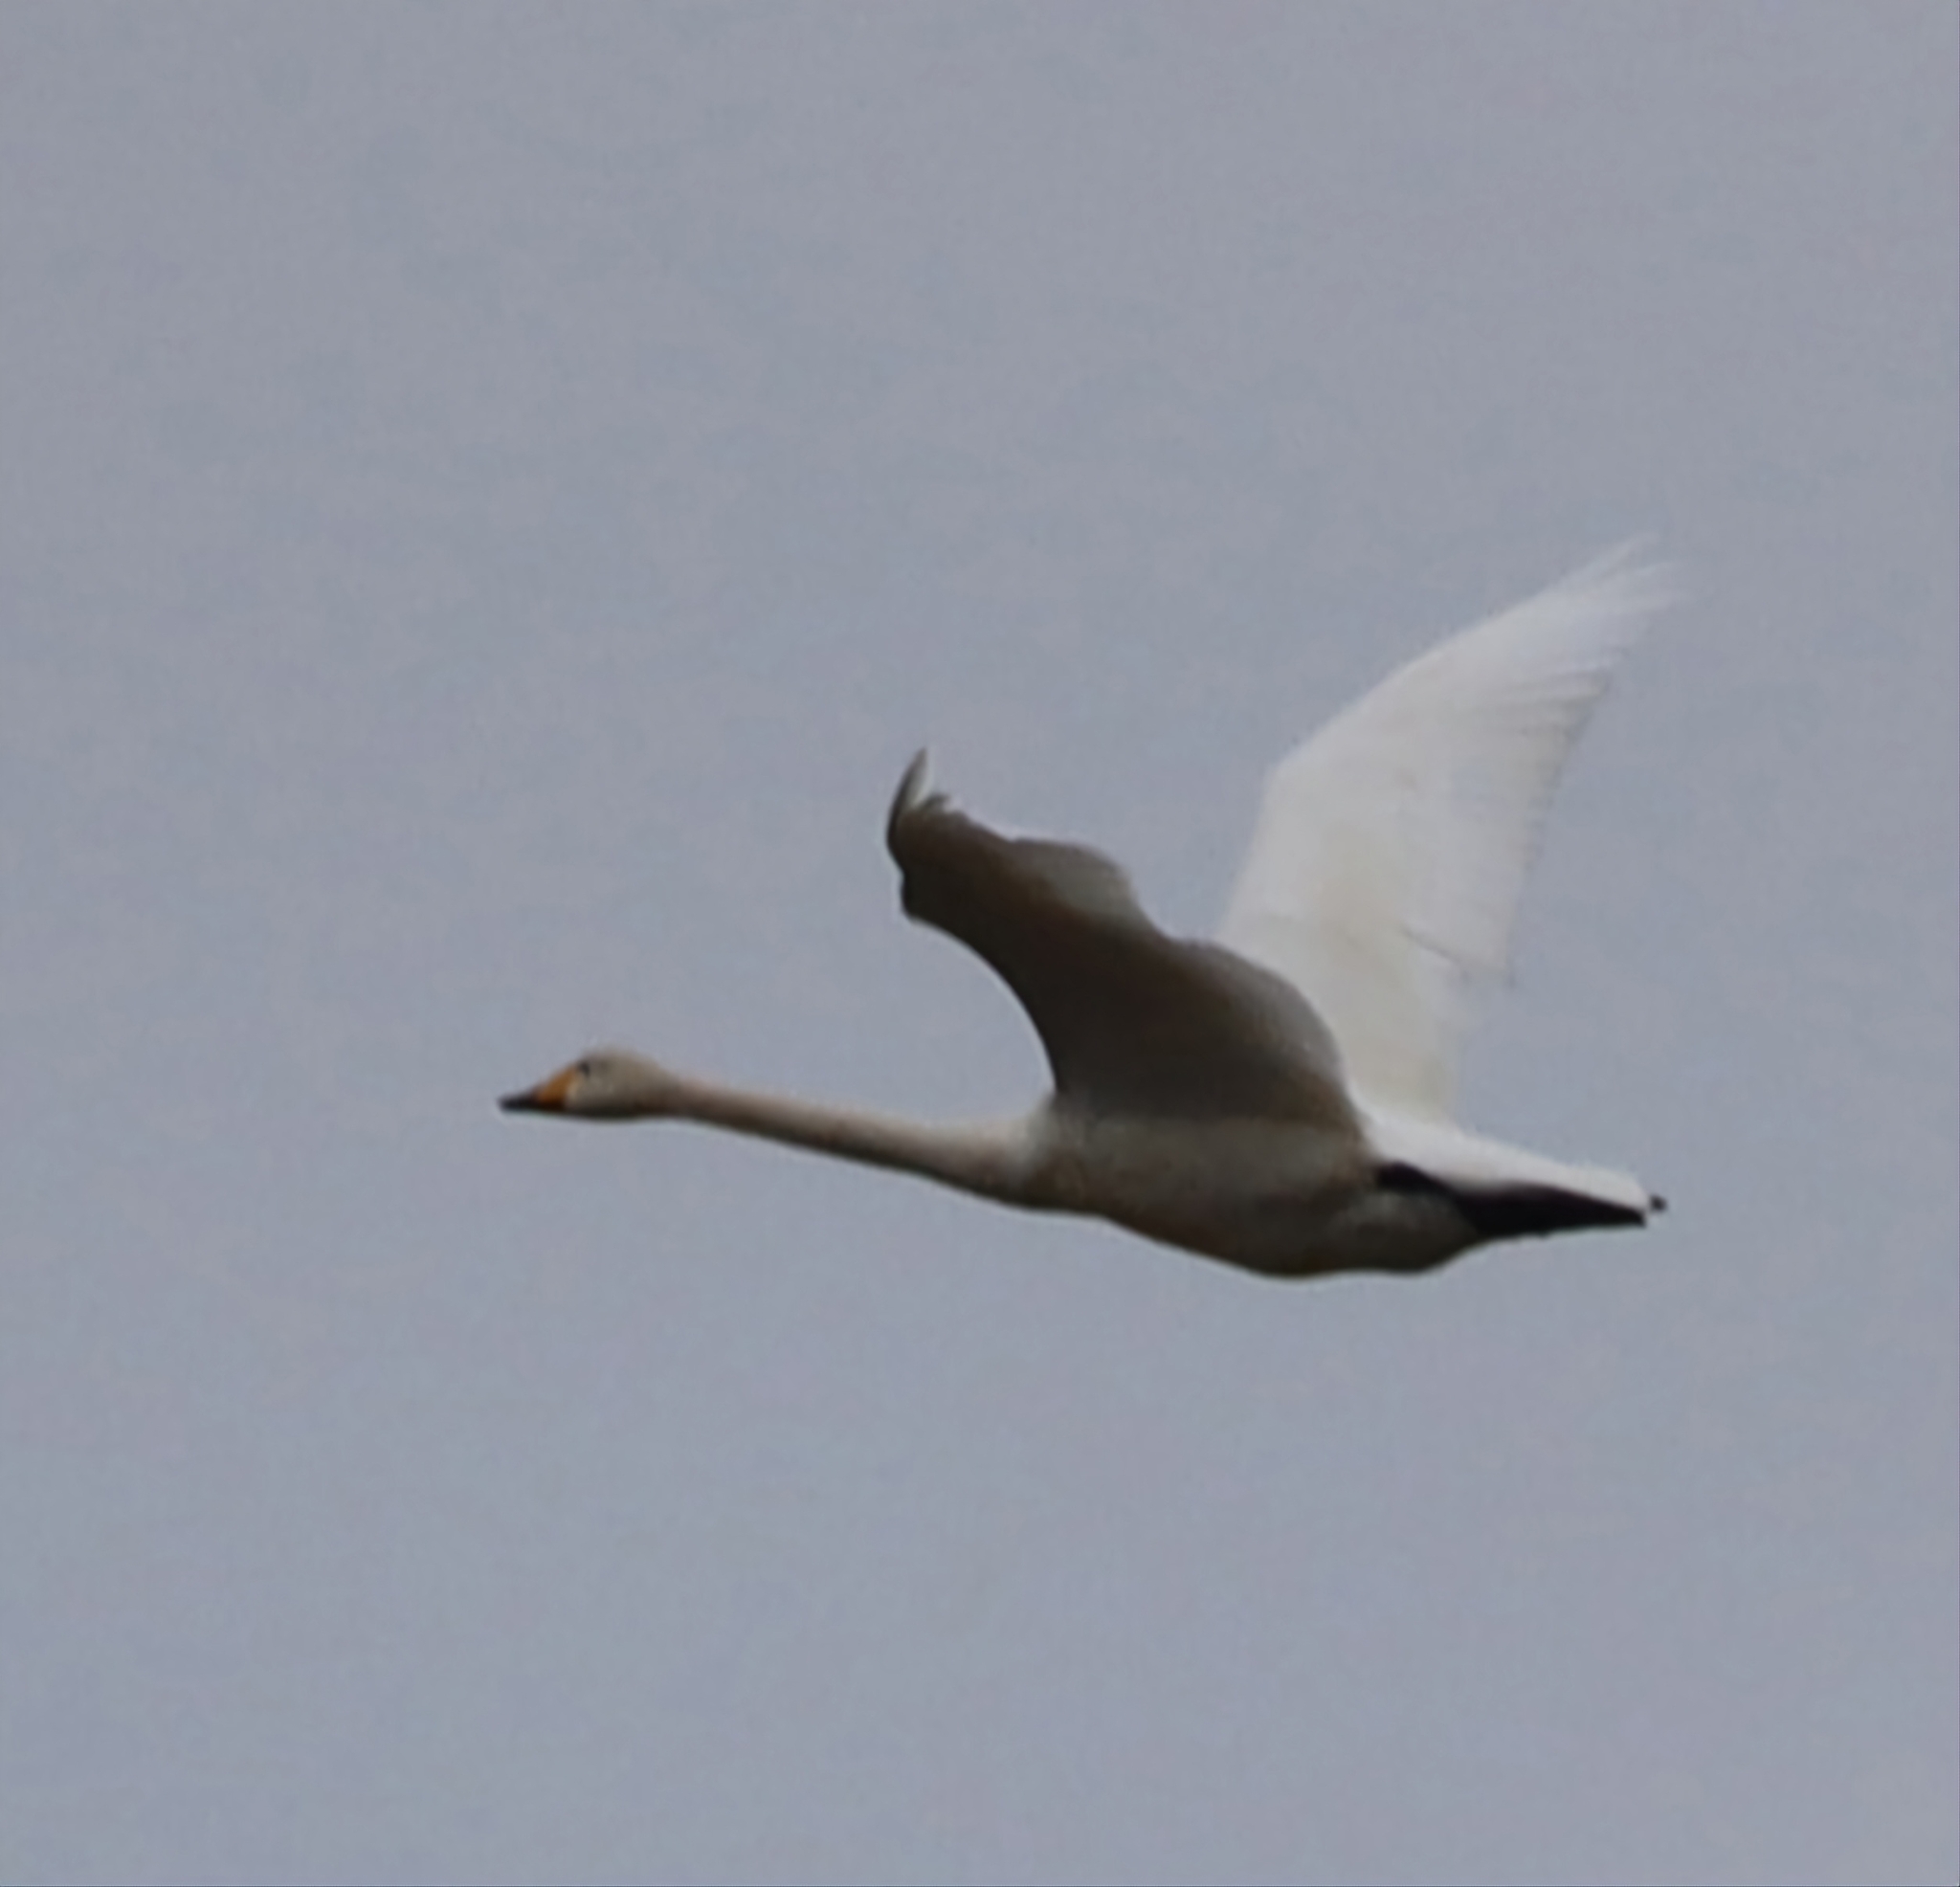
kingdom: Animalia
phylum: Chordata
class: Aves
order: Anseriformes
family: Anatidae
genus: Cygnus
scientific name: Cygnus cygnus
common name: Whooper swan
